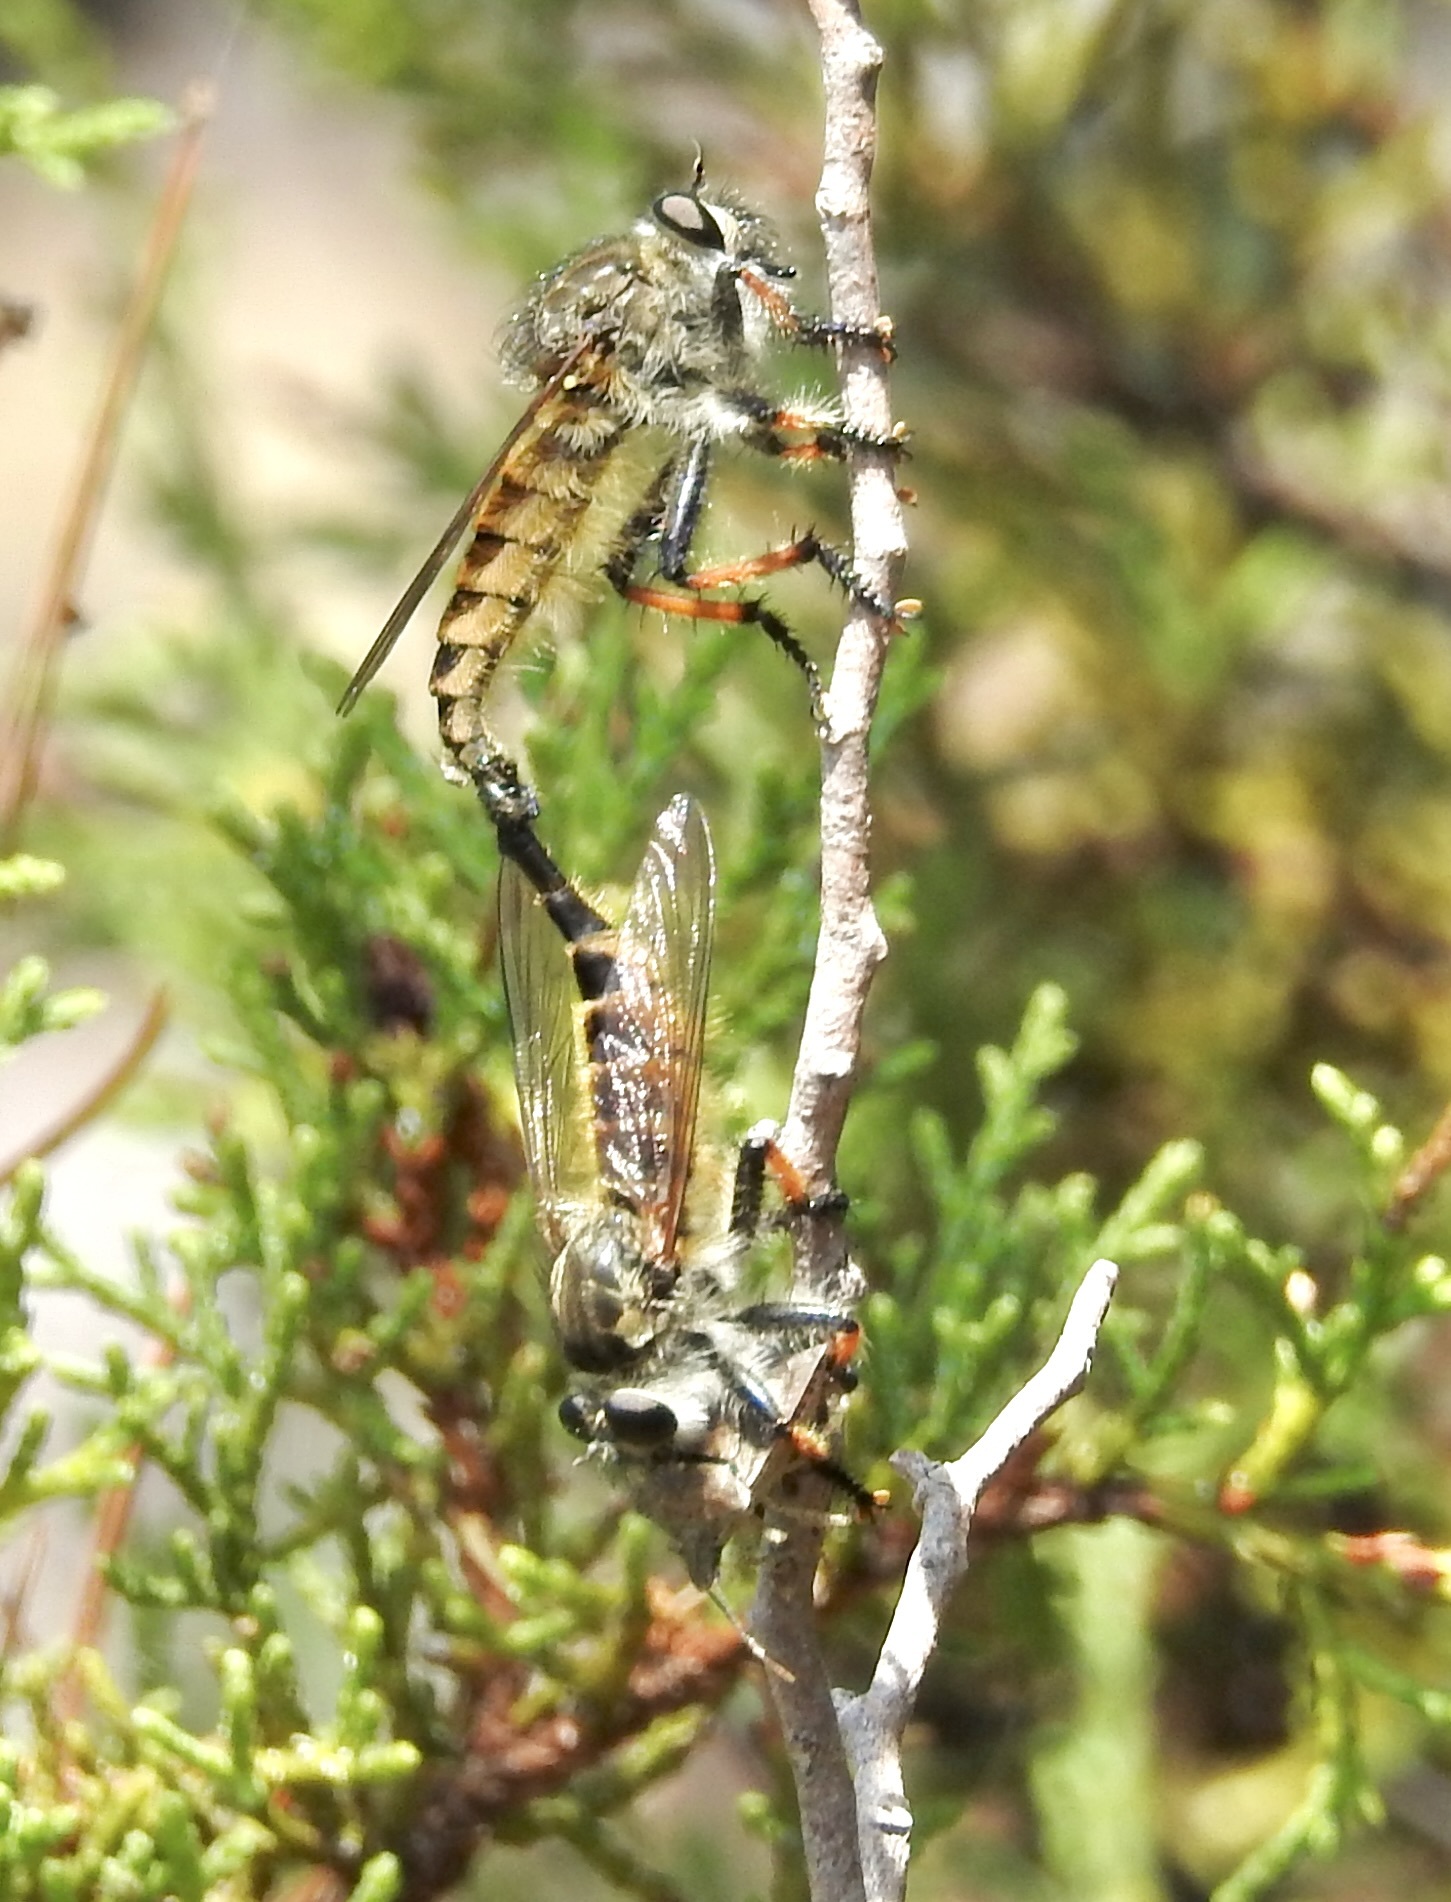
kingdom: Animalia
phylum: Arthropoda
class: Insecta
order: Diptera
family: Asilidae
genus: Promachus
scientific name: Promachus sackeni
